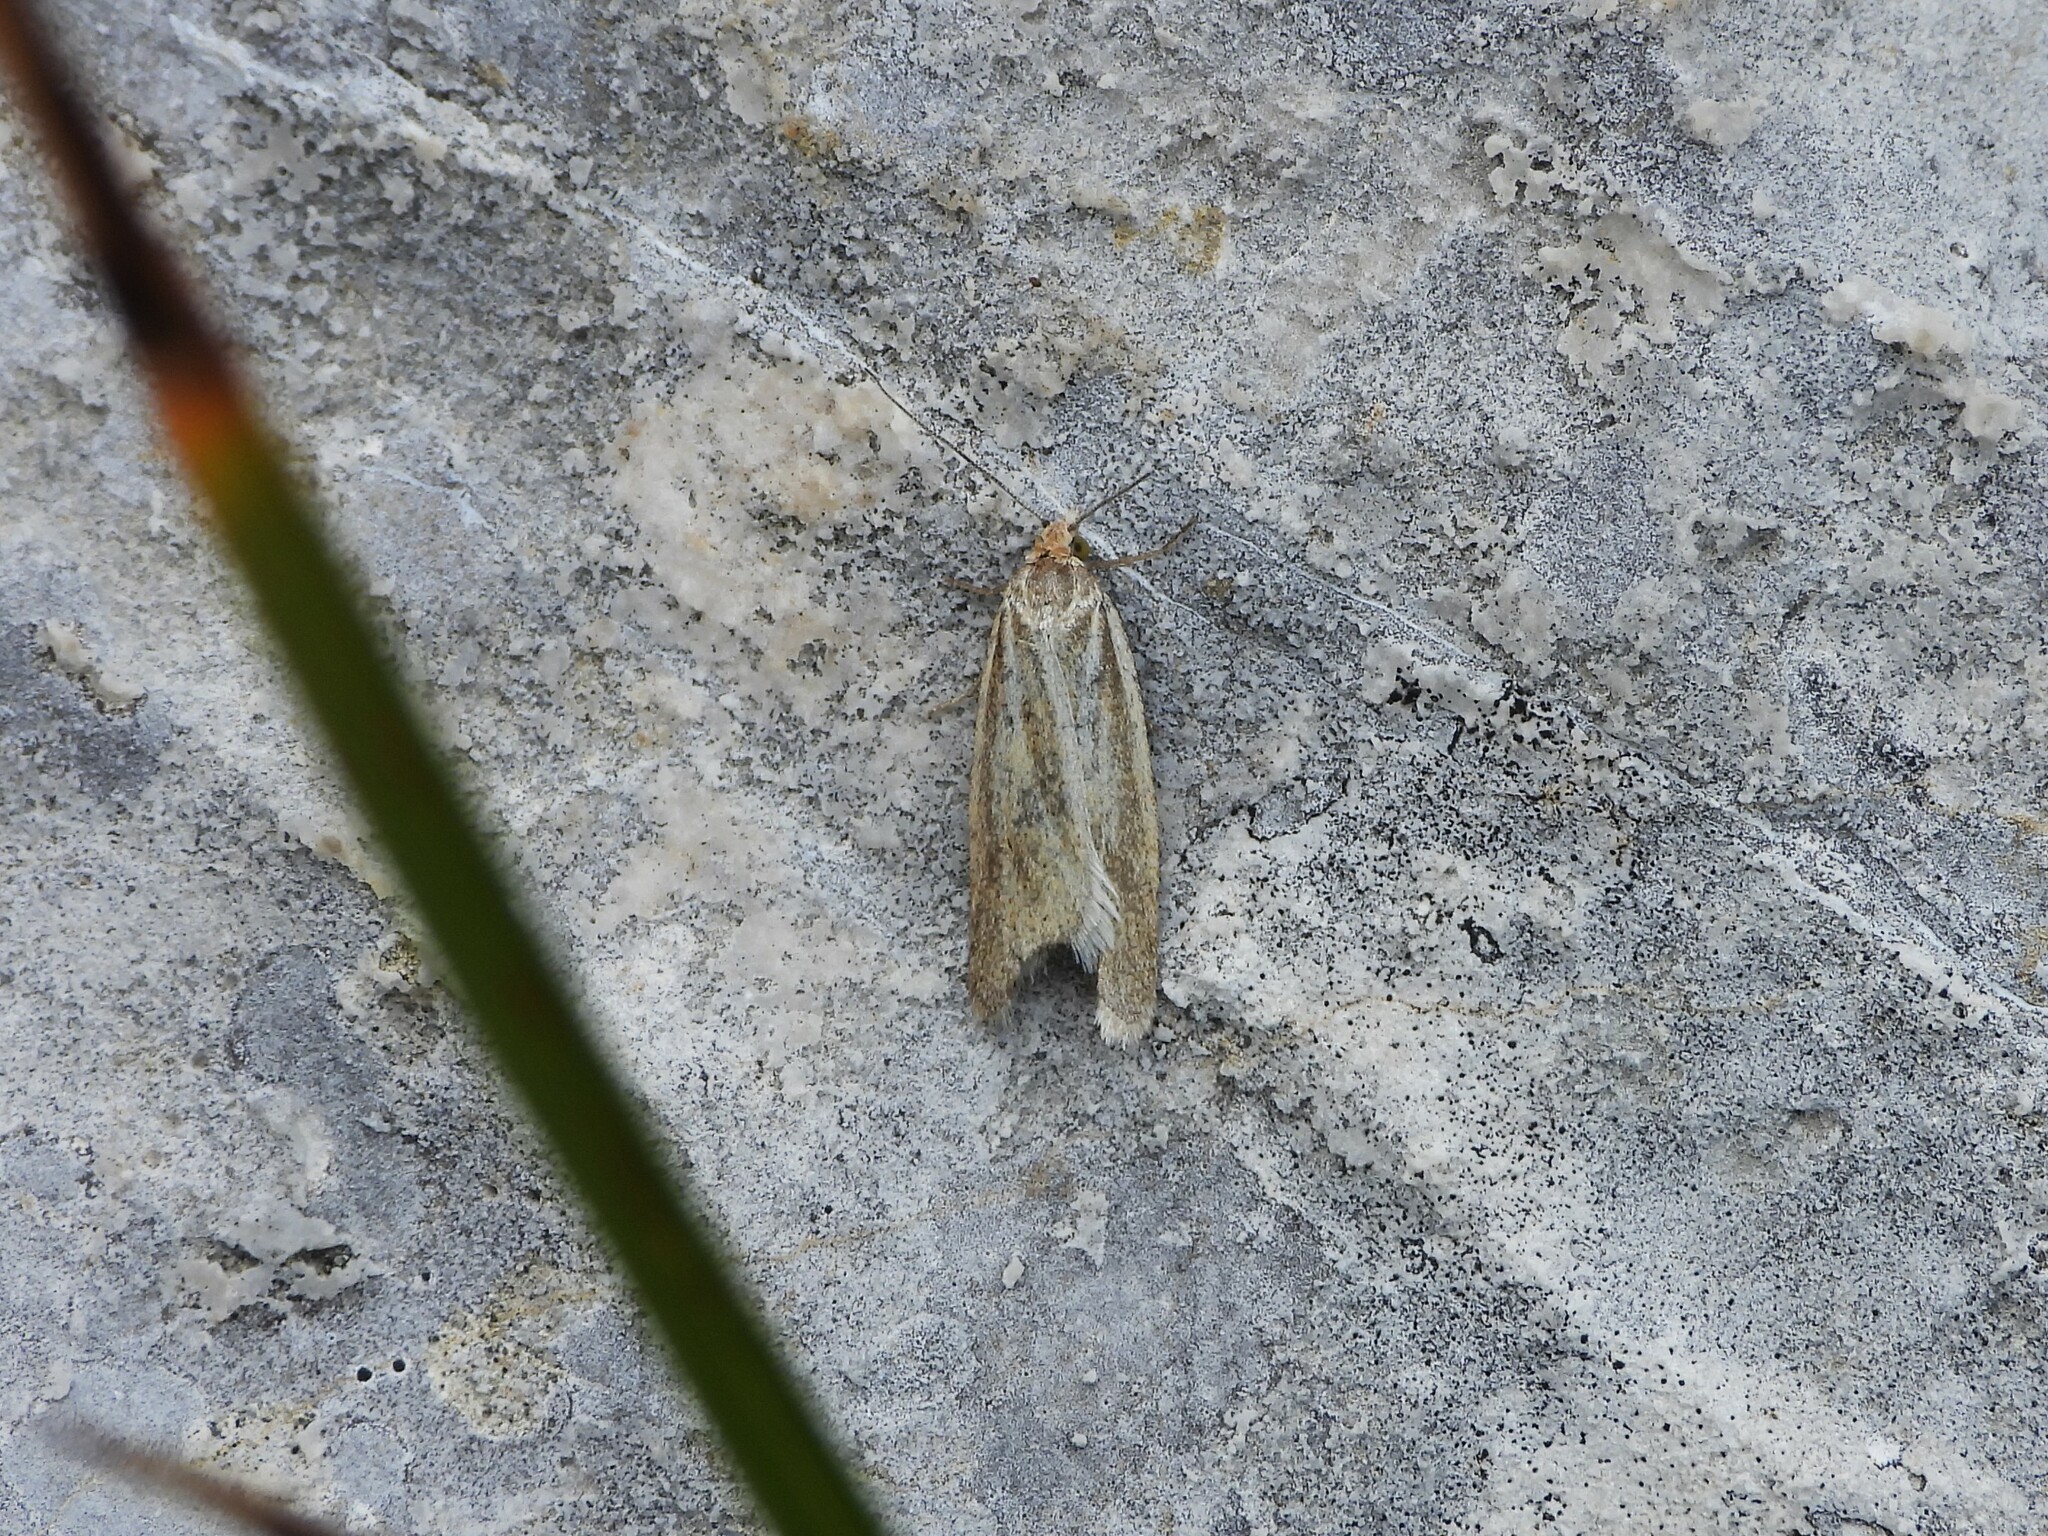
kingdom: Animalia
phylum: Arthropoda
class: Insecta
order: Lepidoptera
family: Tortricidae
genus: Eana
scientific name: Eana osseana
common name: Dotted shade
